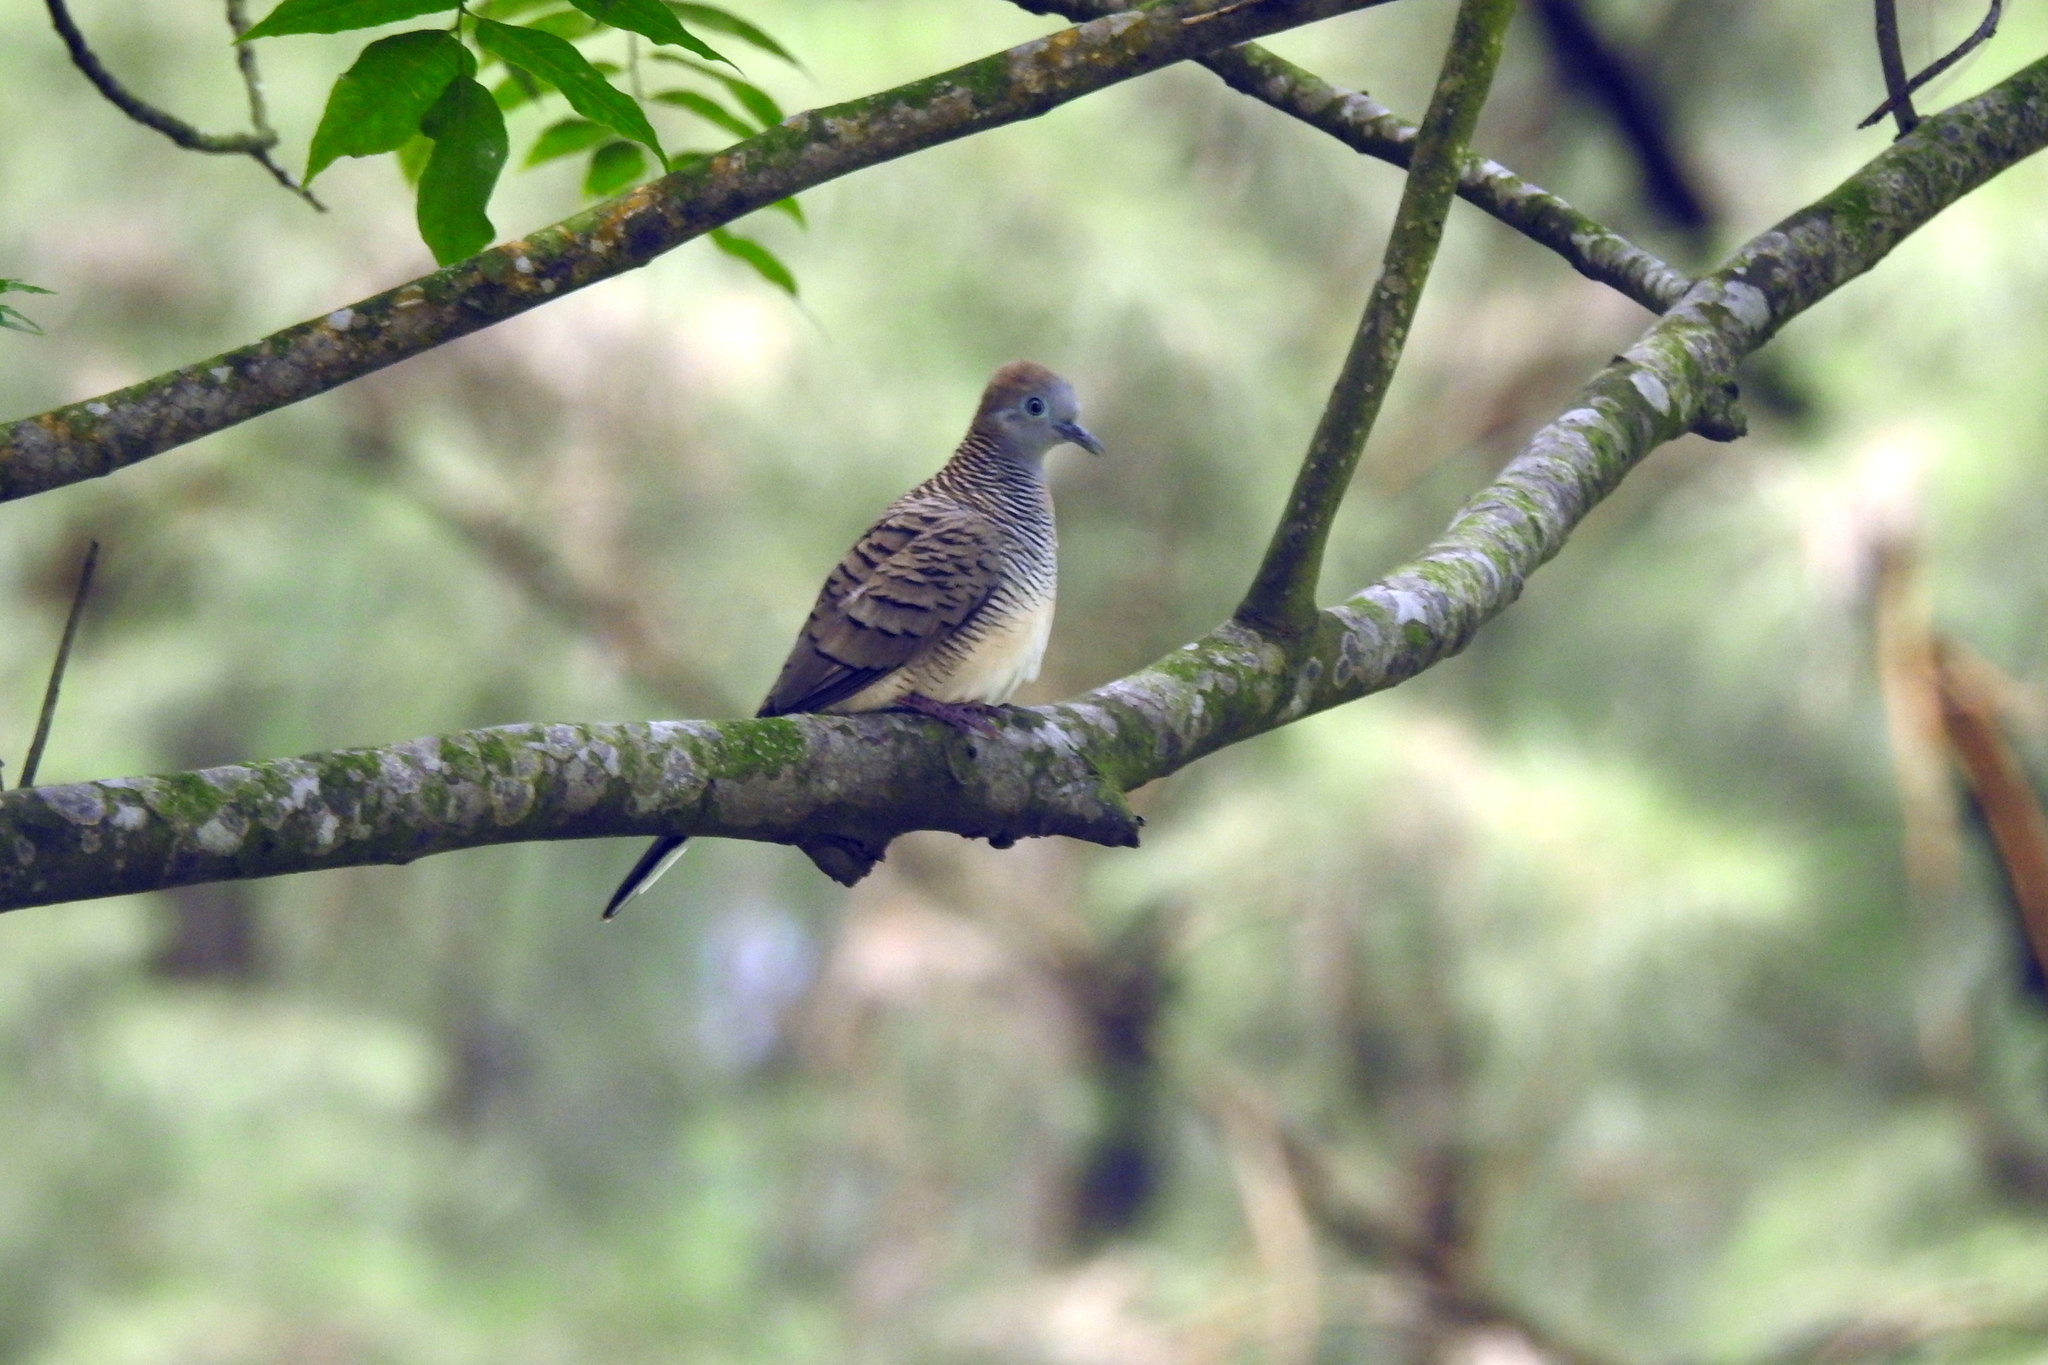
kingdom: Animalia
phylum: Chordata
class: Aves
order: Columbiformes
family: Columbidae
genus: Geopelia
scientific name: Geopelia striata
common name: Zebra dove
